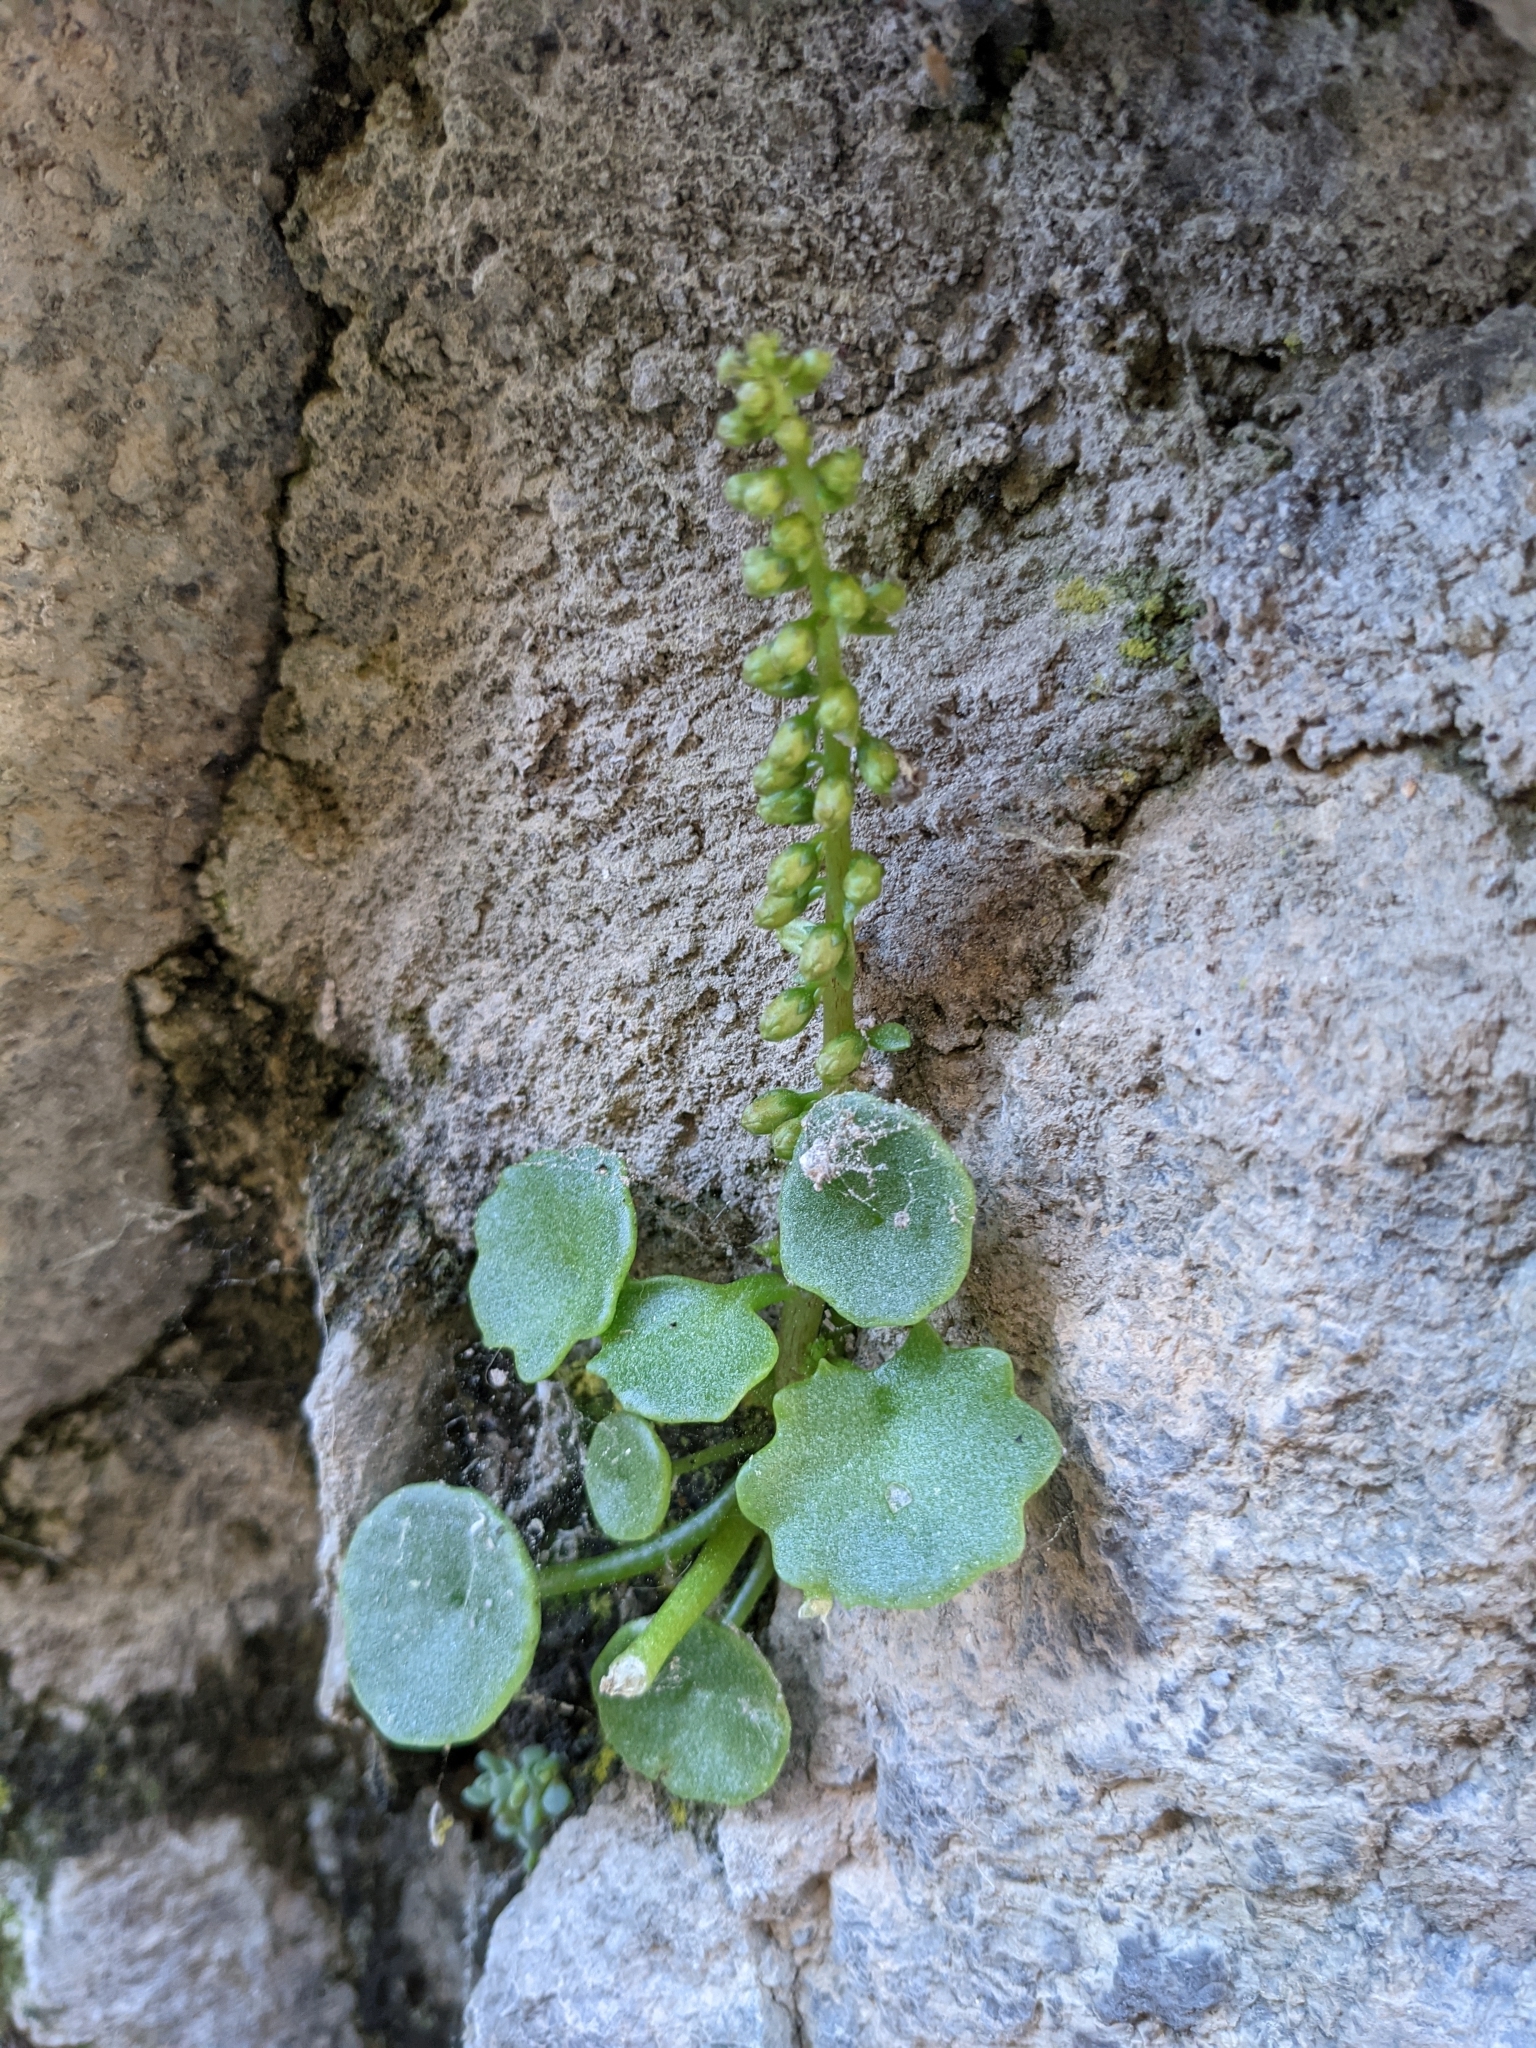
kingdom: Plantae
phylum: Tracheophyta
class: Magnoliopsida
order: Saxifragales
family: Crassulaceae
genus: Umbilicus
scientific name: Umbilicus rupestris
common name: Navelwort
